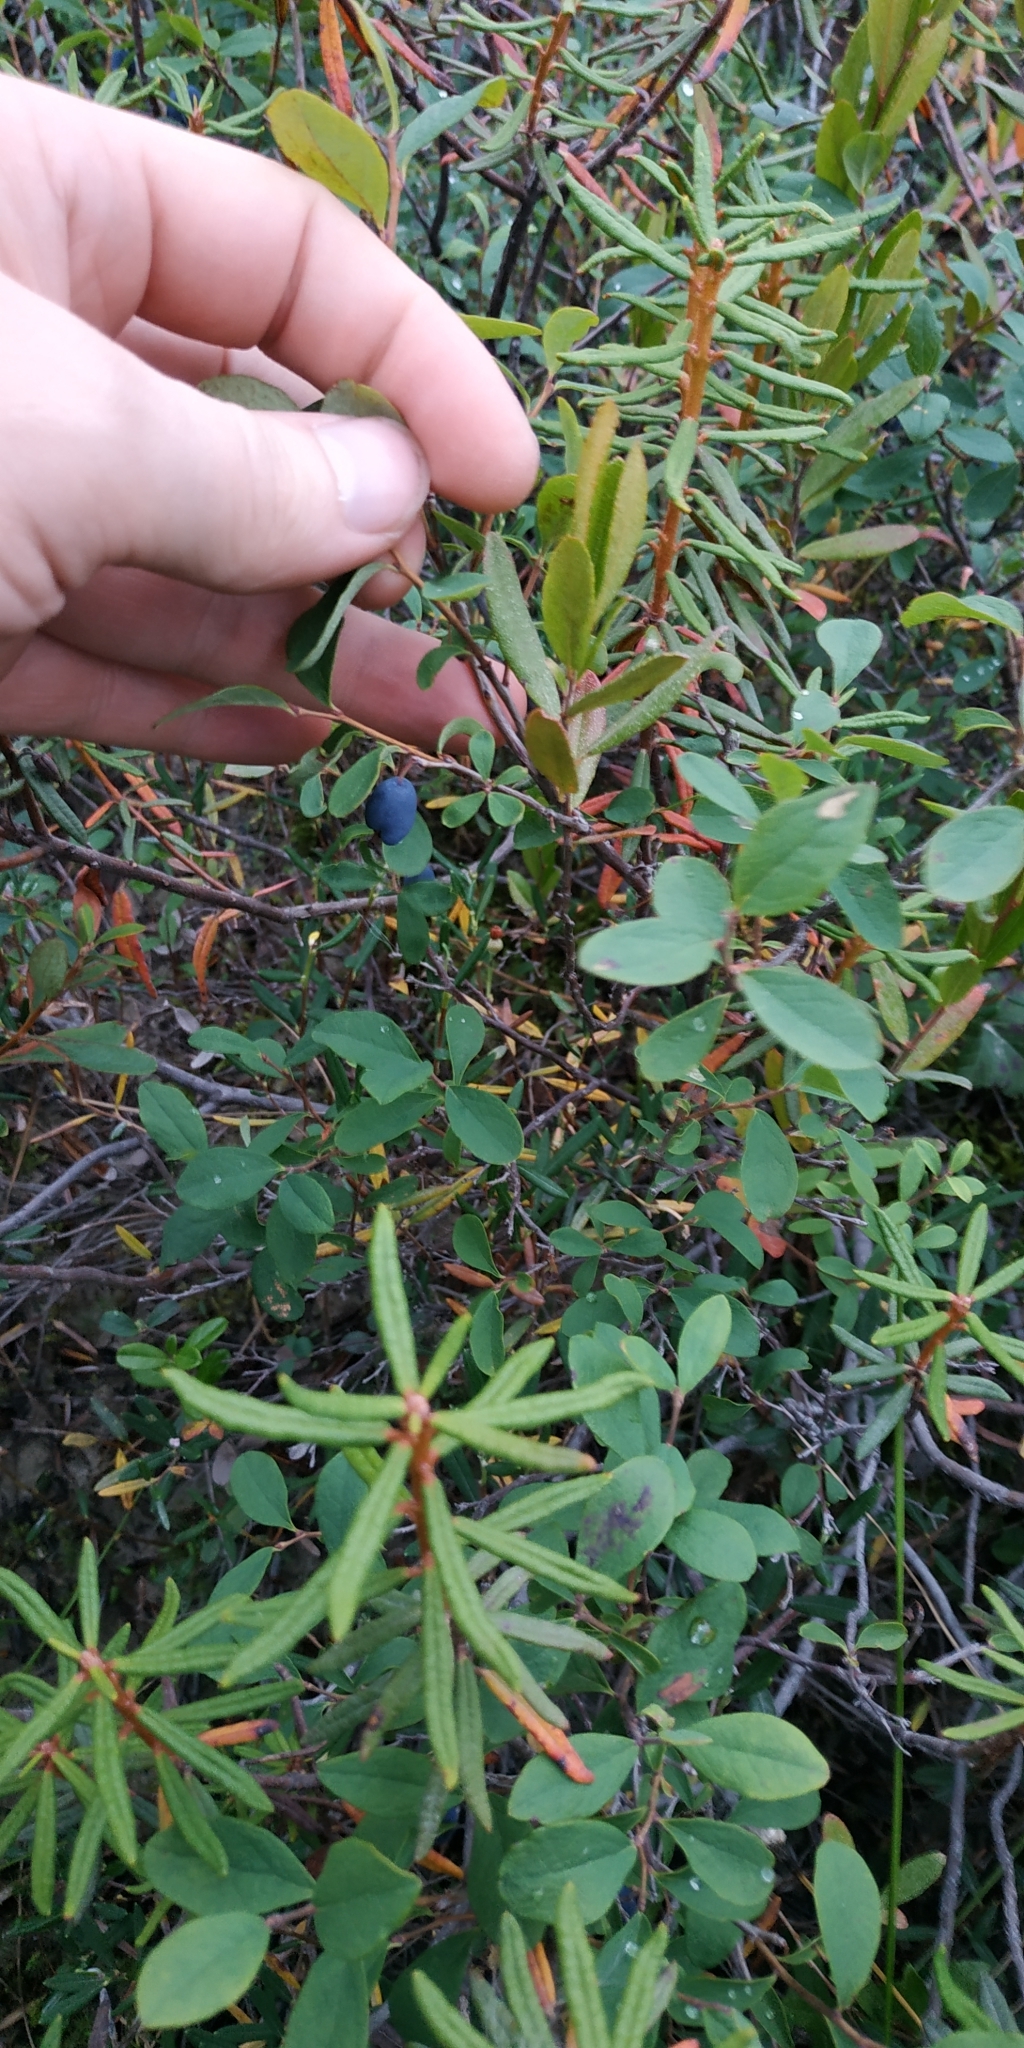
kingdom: Plantae
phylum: Tracheophyta
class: Magnoliopsida
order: Ericales
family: Ericaceae
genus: Vaccinium
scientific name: Vaccinium uliginosum
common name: Bog bilberry
